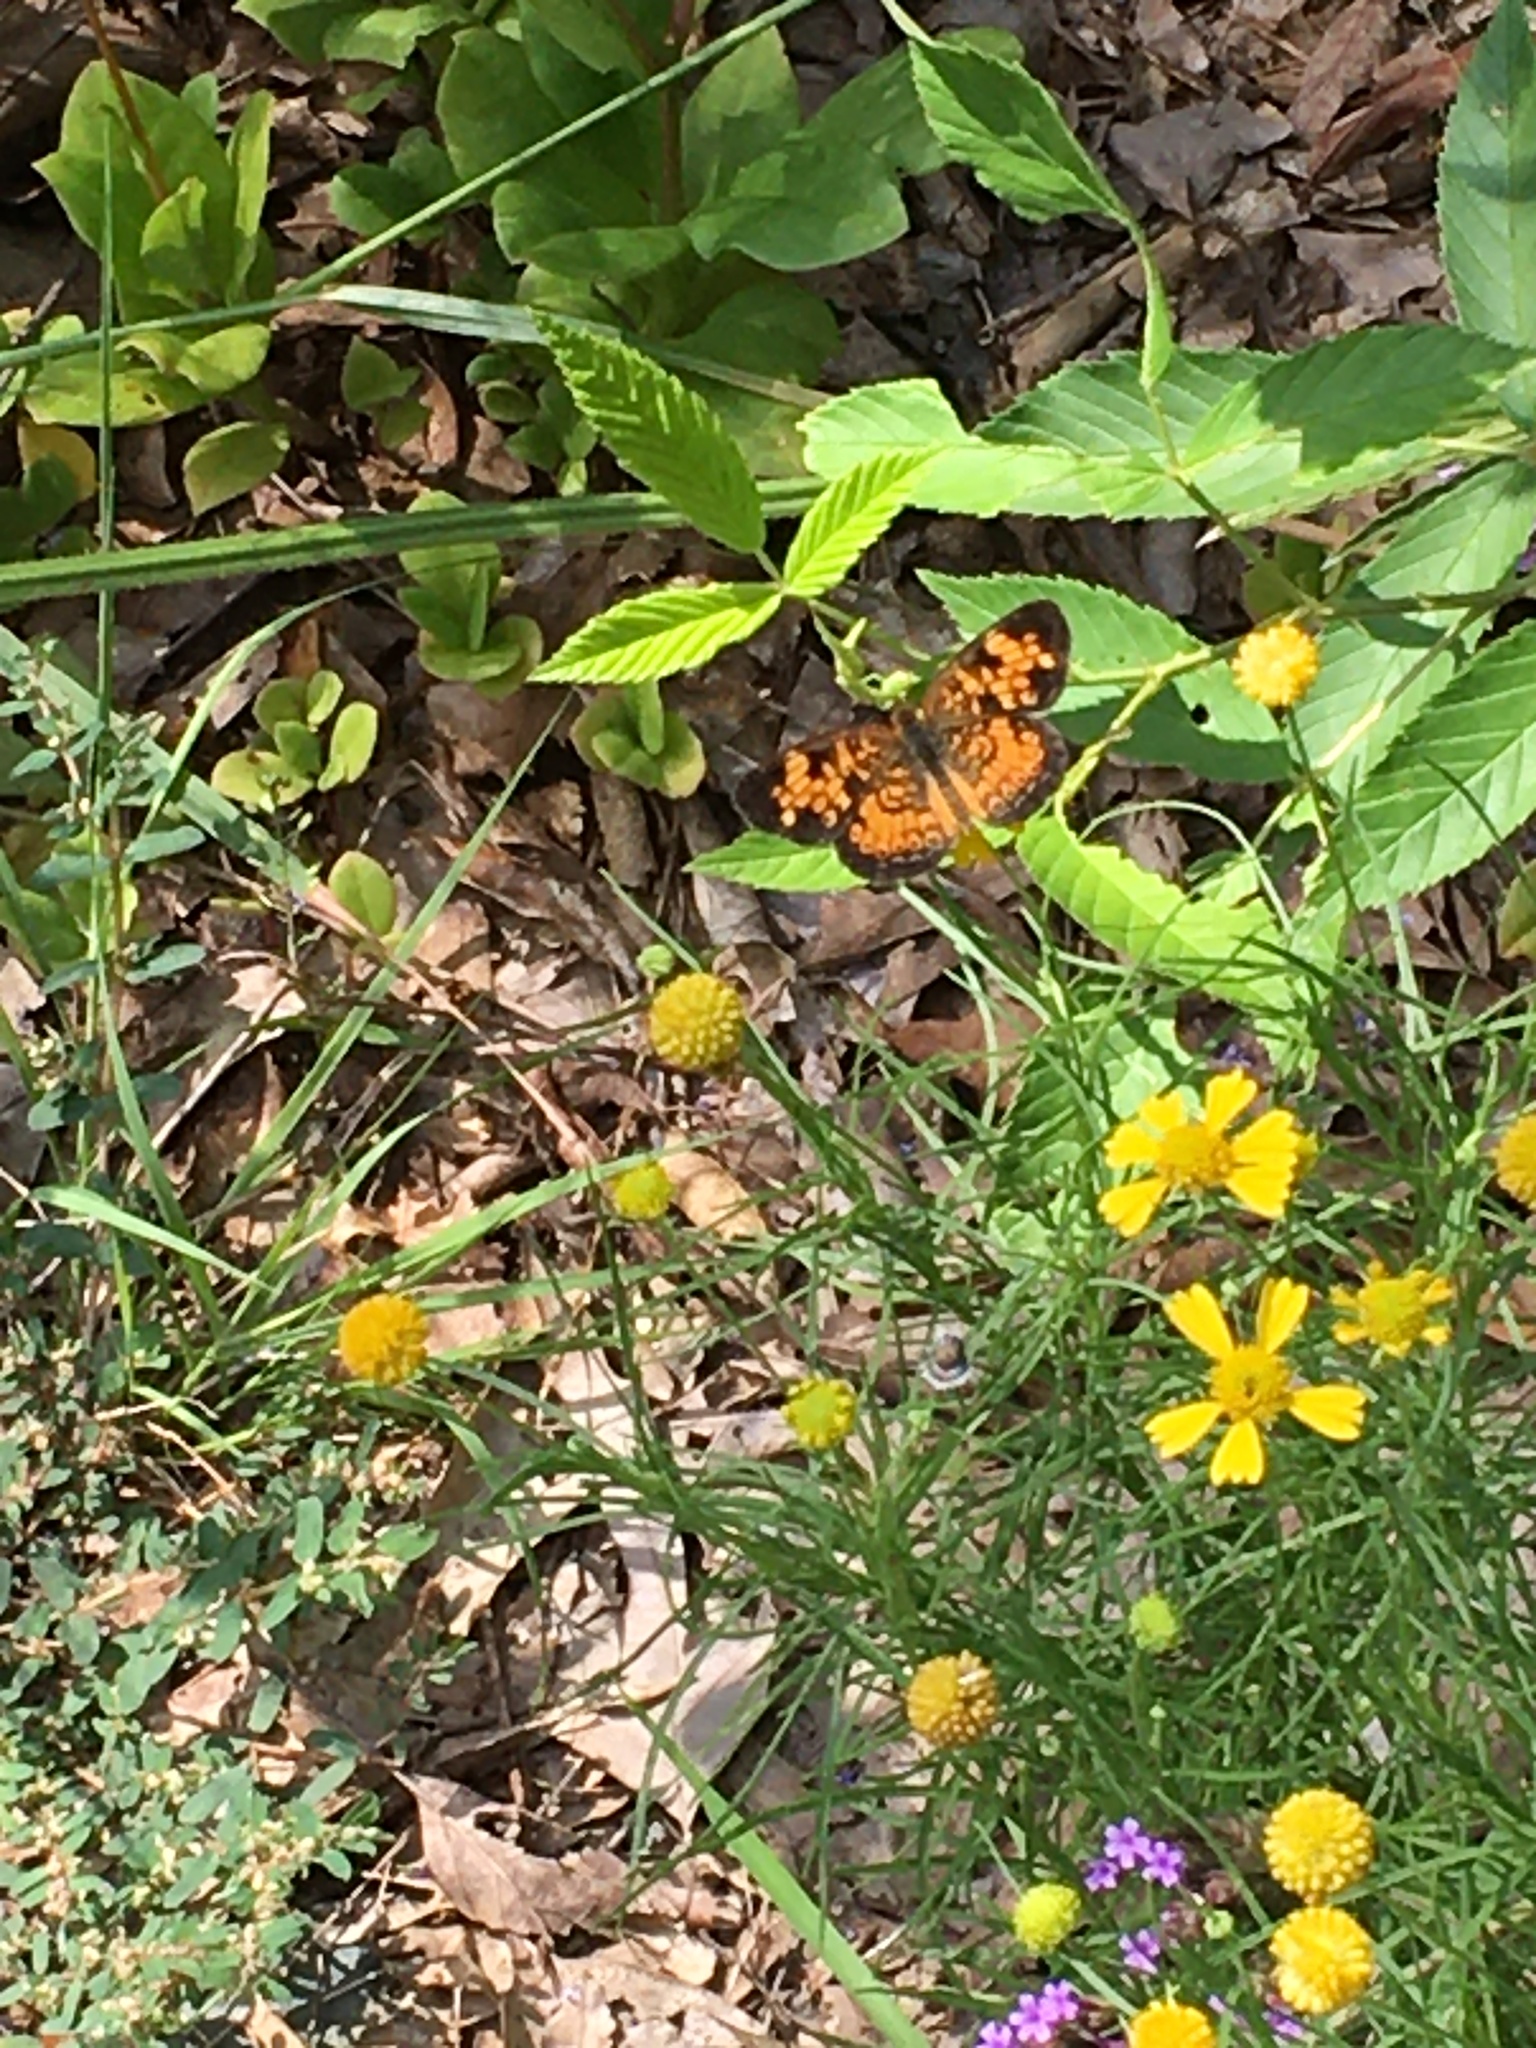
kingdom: Animalia
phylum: Arthropoda
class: Insecta
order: Lepidoptera
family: Nymphalidae
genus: Phyciodes
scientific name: Phyciodes tharos
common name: Pearl crescent
